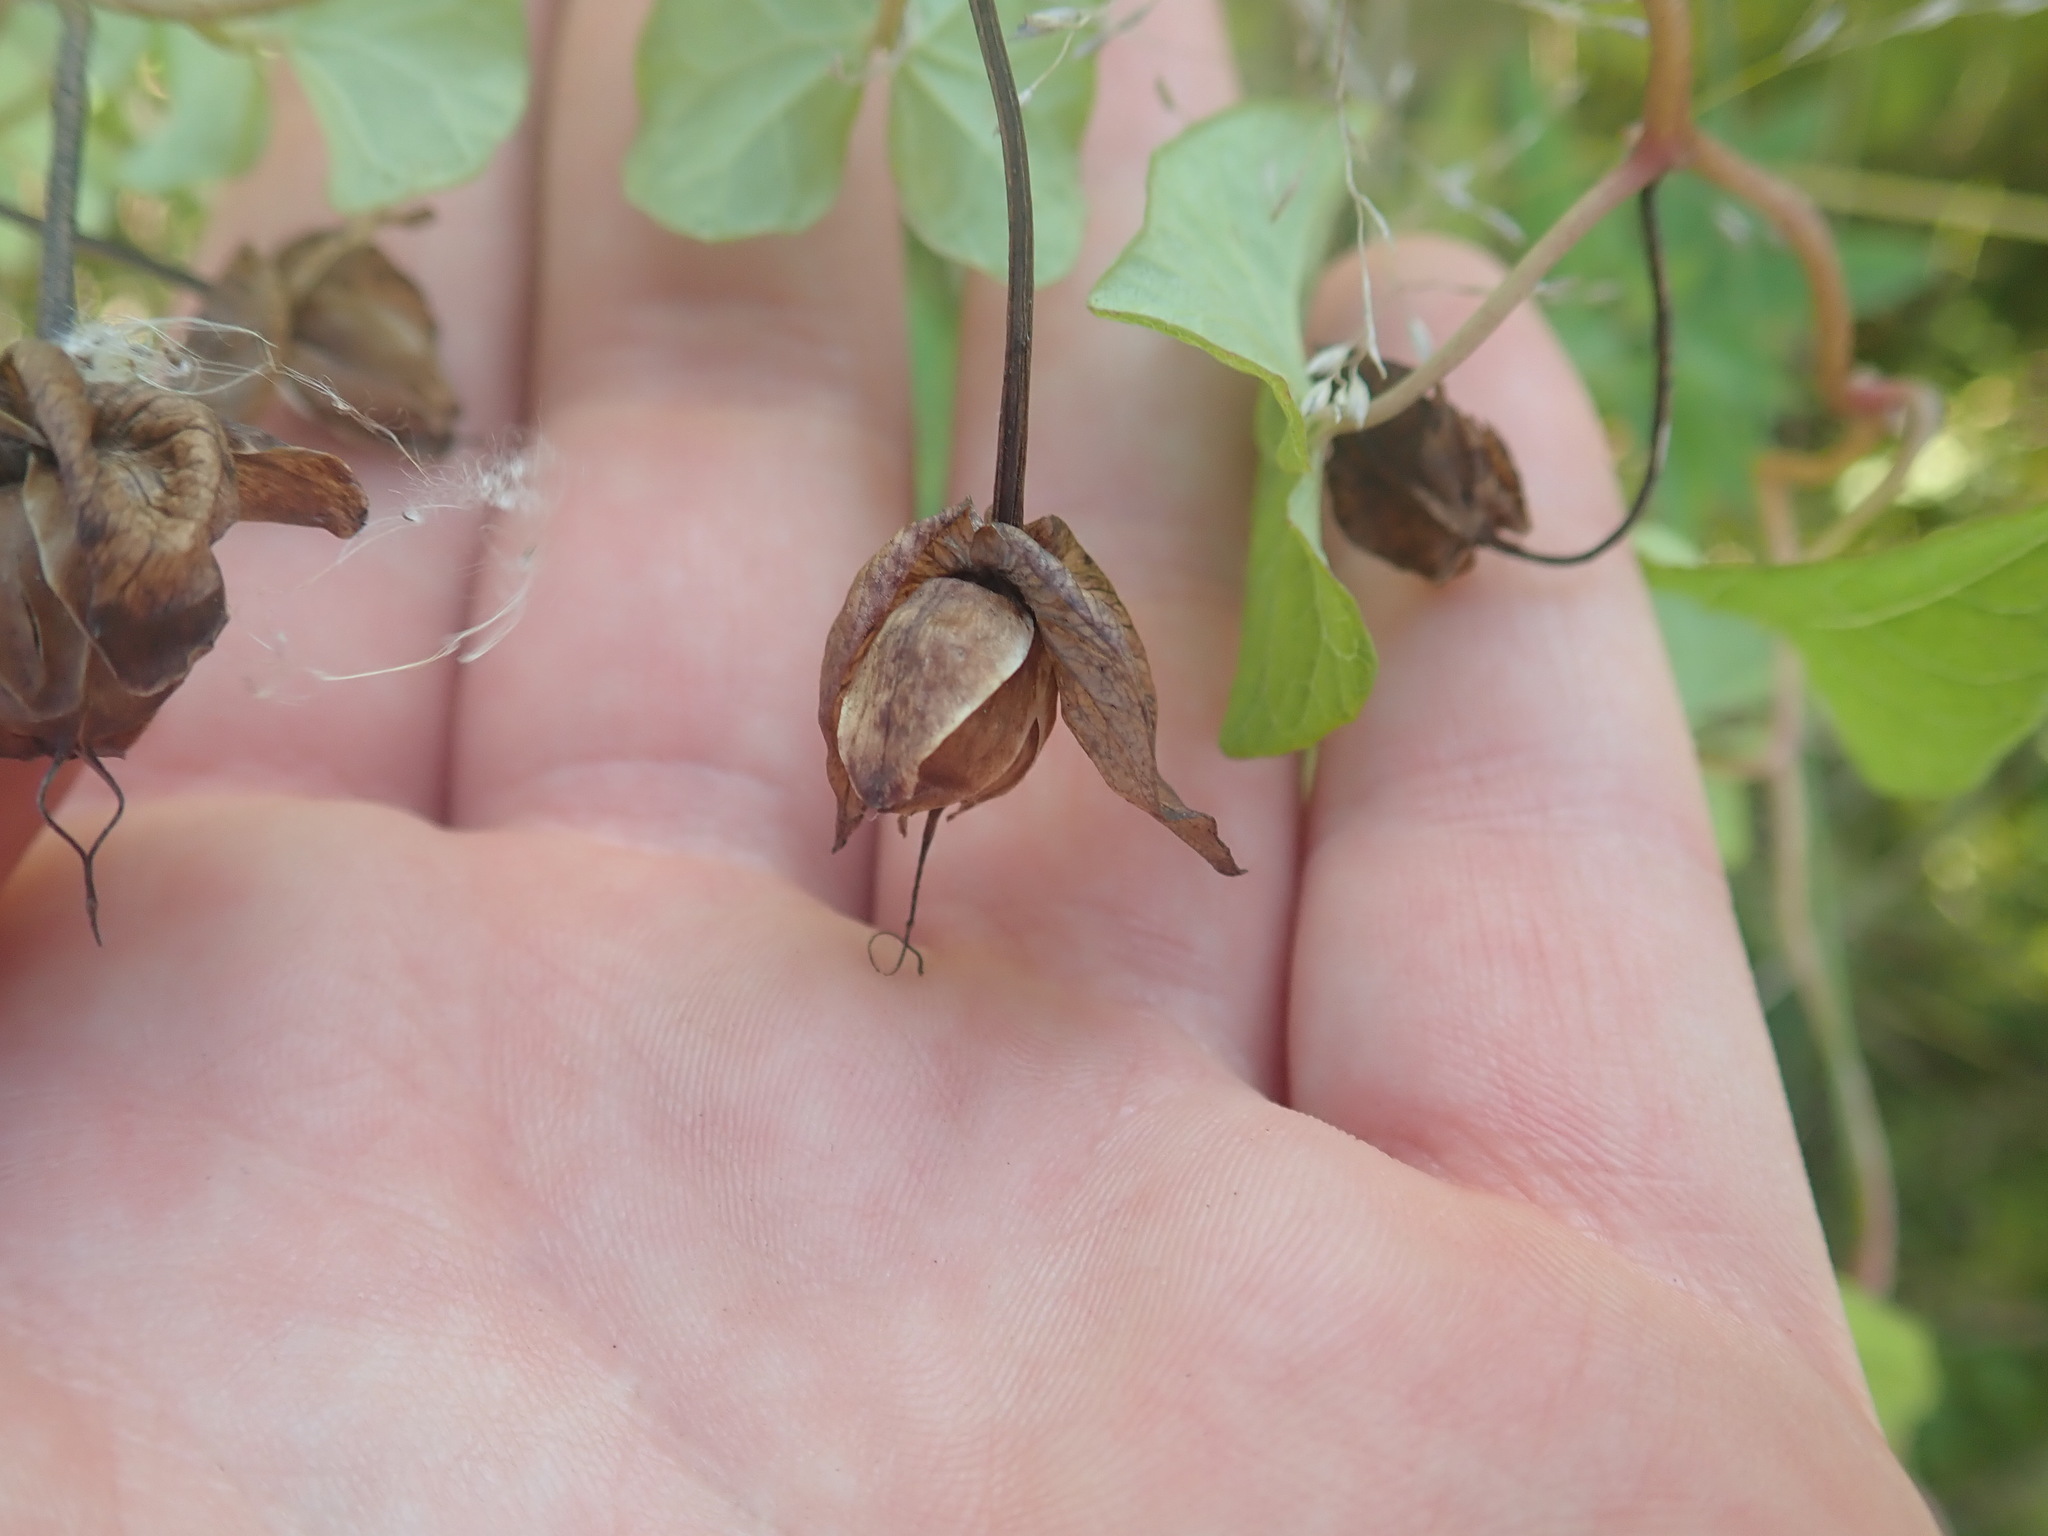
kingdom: Plantae
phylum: Tracheophyta
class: Magnoliopsida
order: Solanales
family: Convolvulaceae
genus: Calystegia
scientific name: Calystegia sepium
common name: Hedge bindweed
